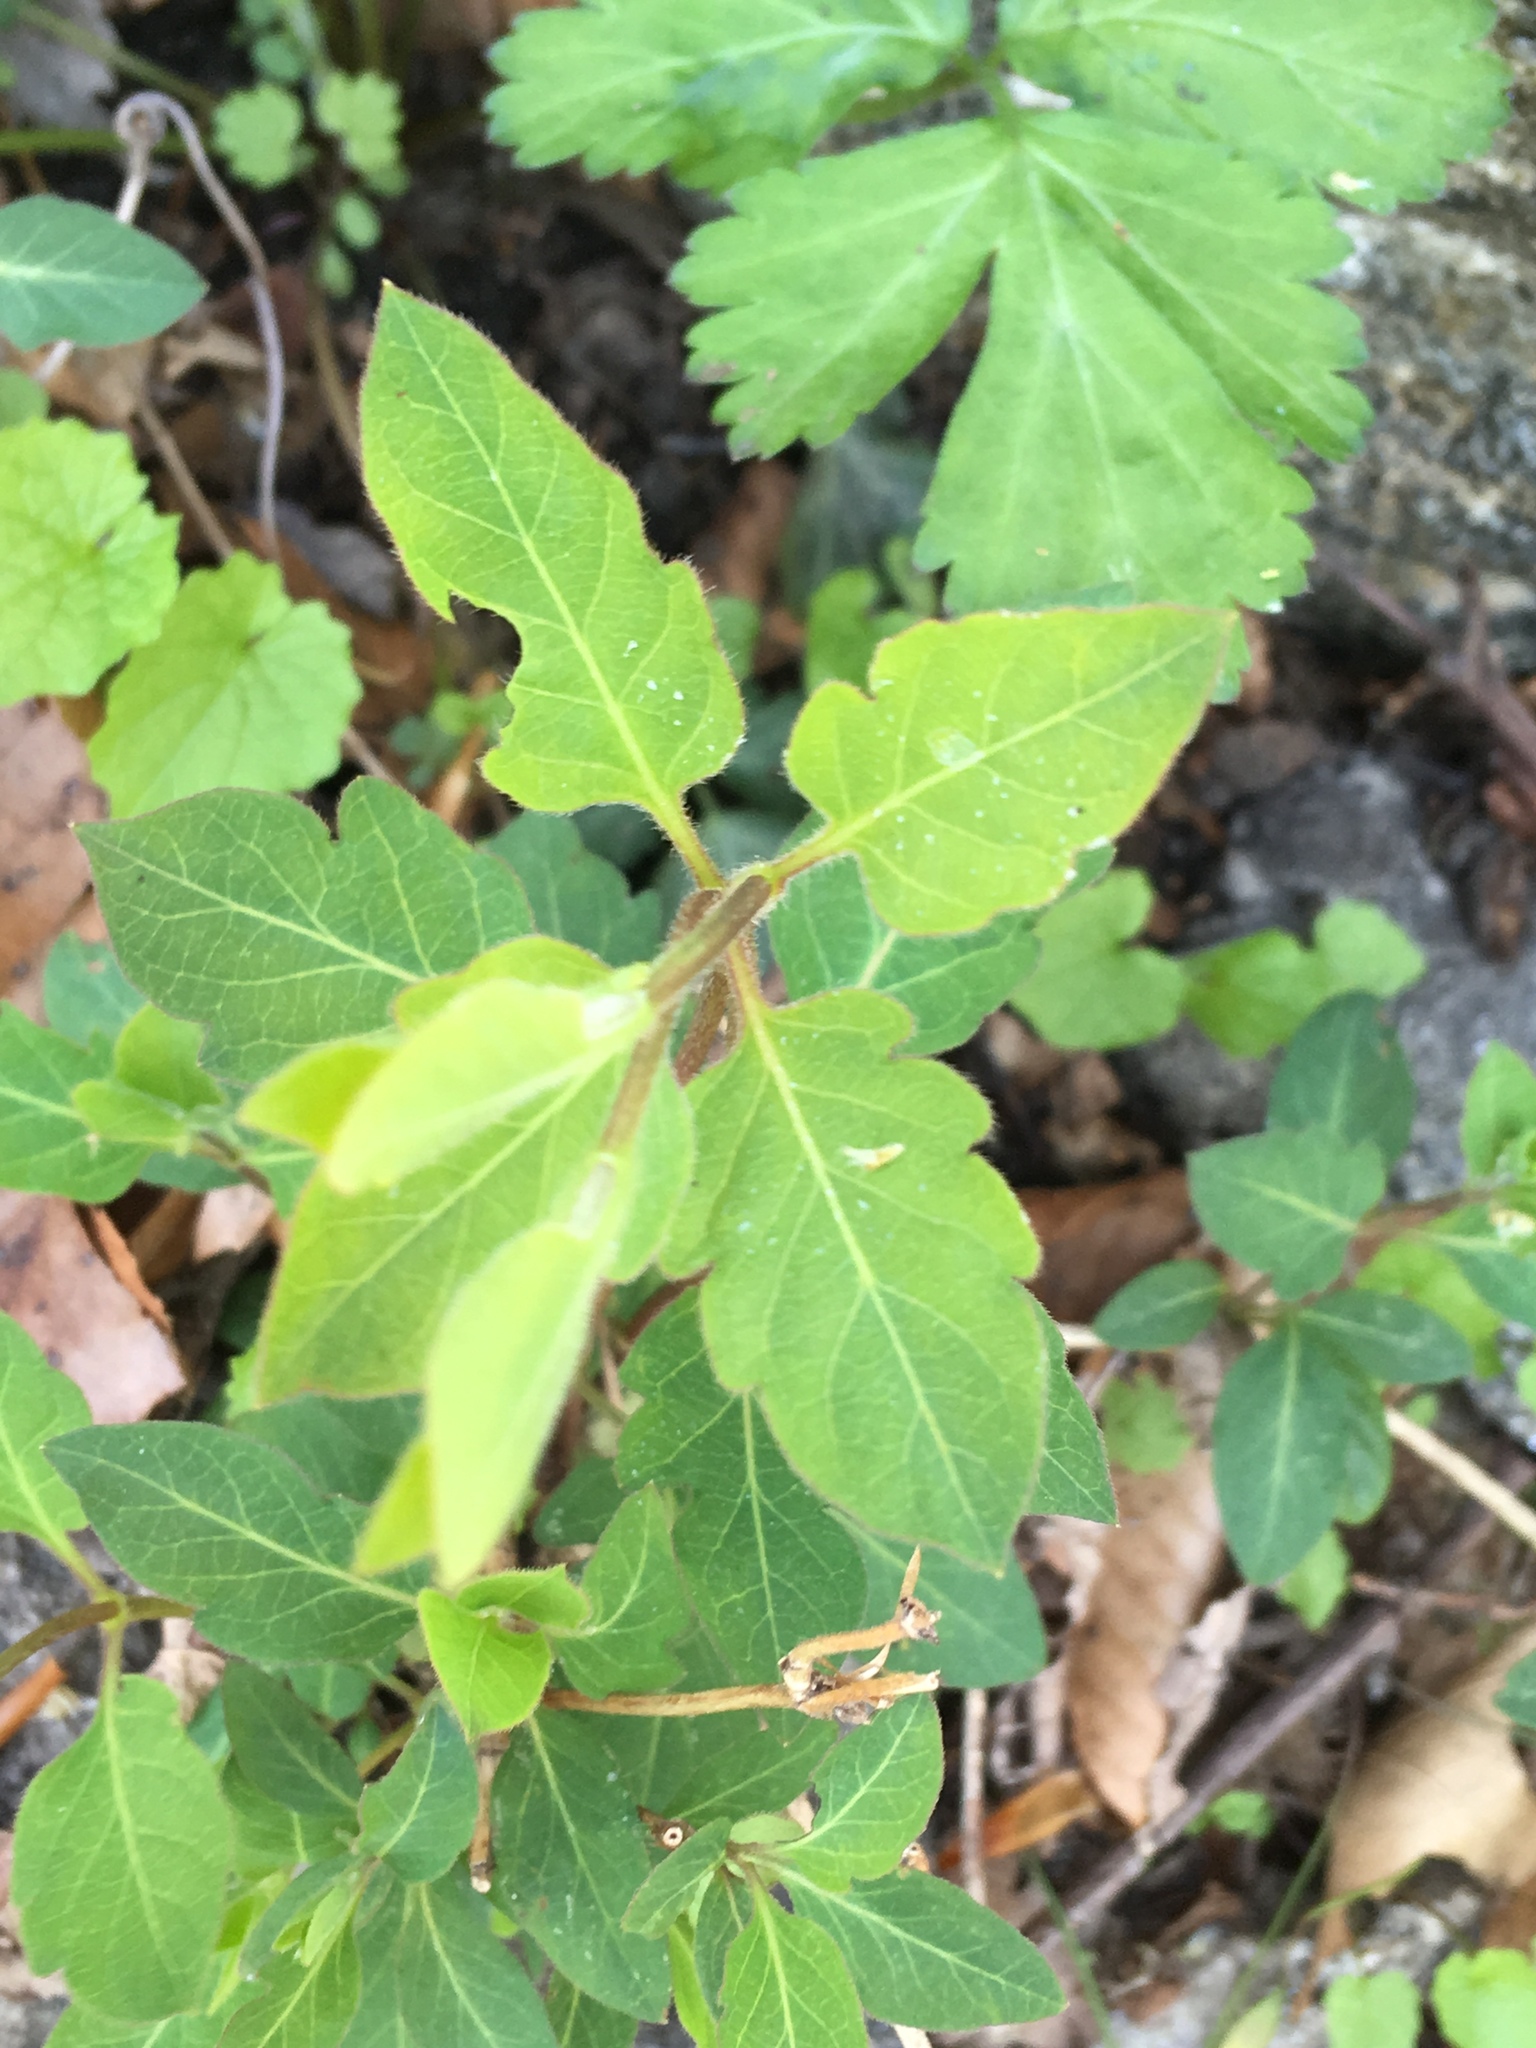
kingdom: Plantae
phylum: Tracheophyta
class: Magnoliopsida
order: Dipsacales
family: Caprifoliaceae
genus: Lonicera
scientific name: Lonicera japonica
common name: Japanese honeysuckle
